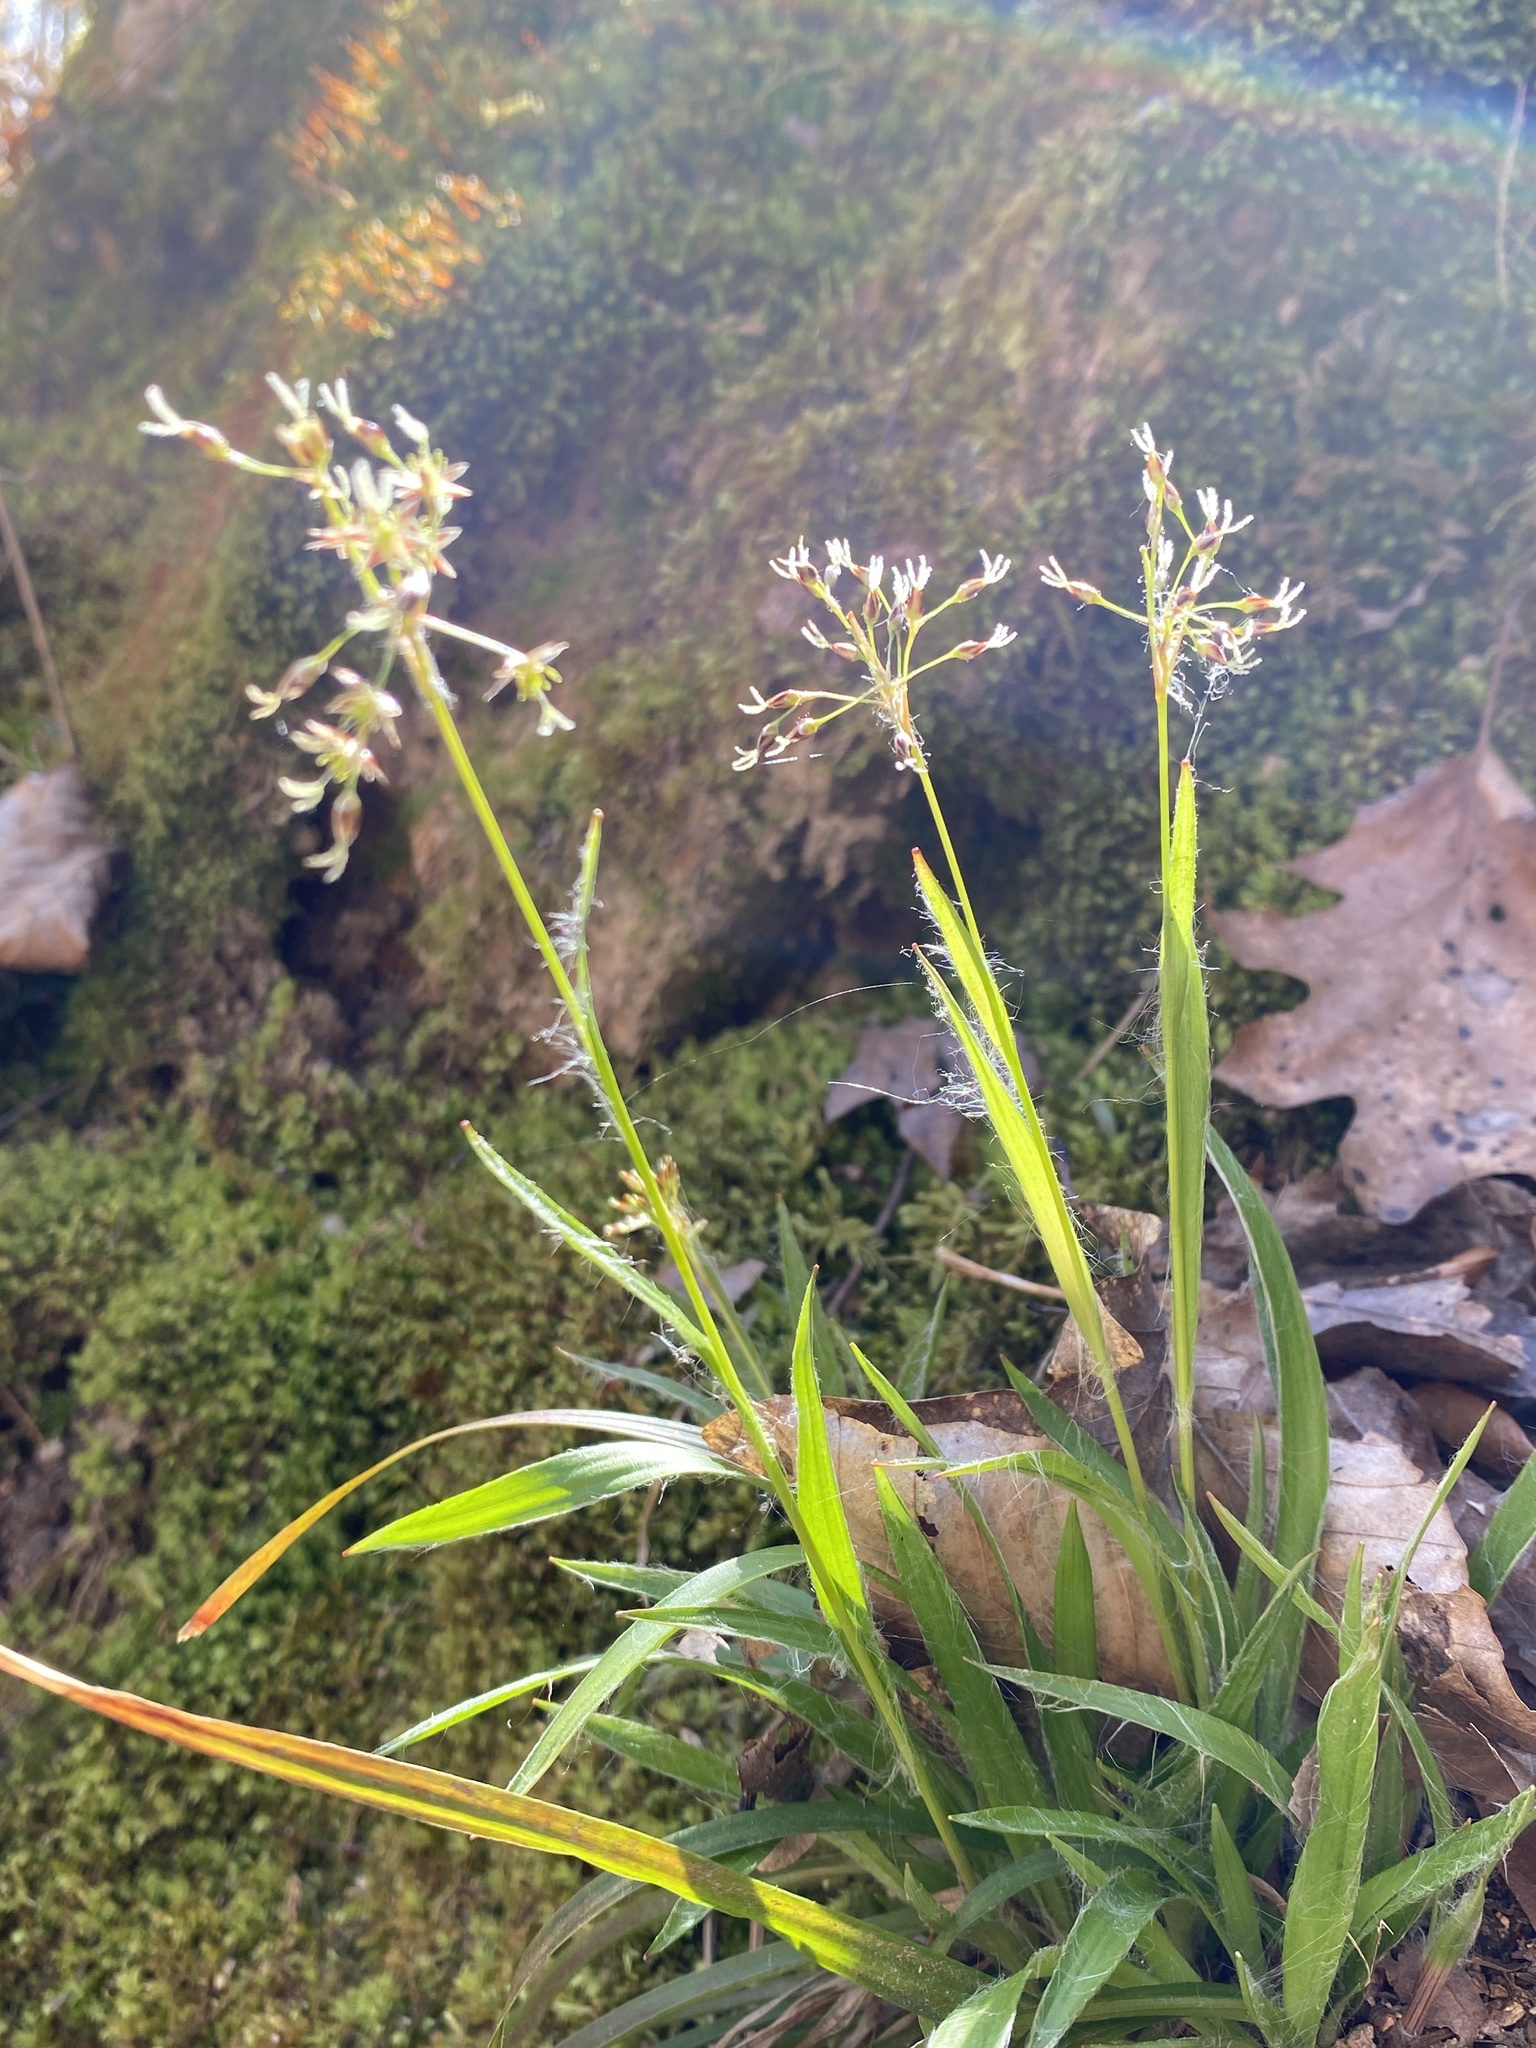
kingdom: Plantae
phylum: Tracheophyta
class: Liliopsida
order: Poales
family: Juncaceae
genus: Luzula
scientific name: Luzula acuminata
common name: Hairy woodrush
